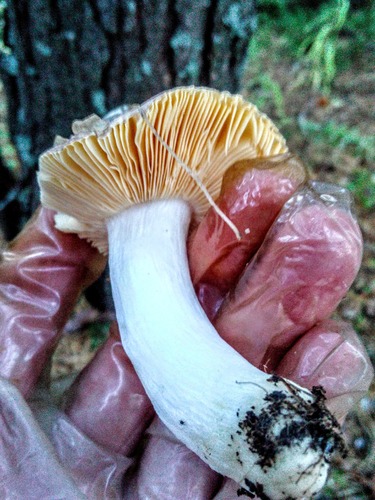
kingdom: Fungi
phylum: Basidiomycota
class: Agaricomycetes
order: Russulales
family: Russulaceae
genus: Russula
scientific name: Russula
